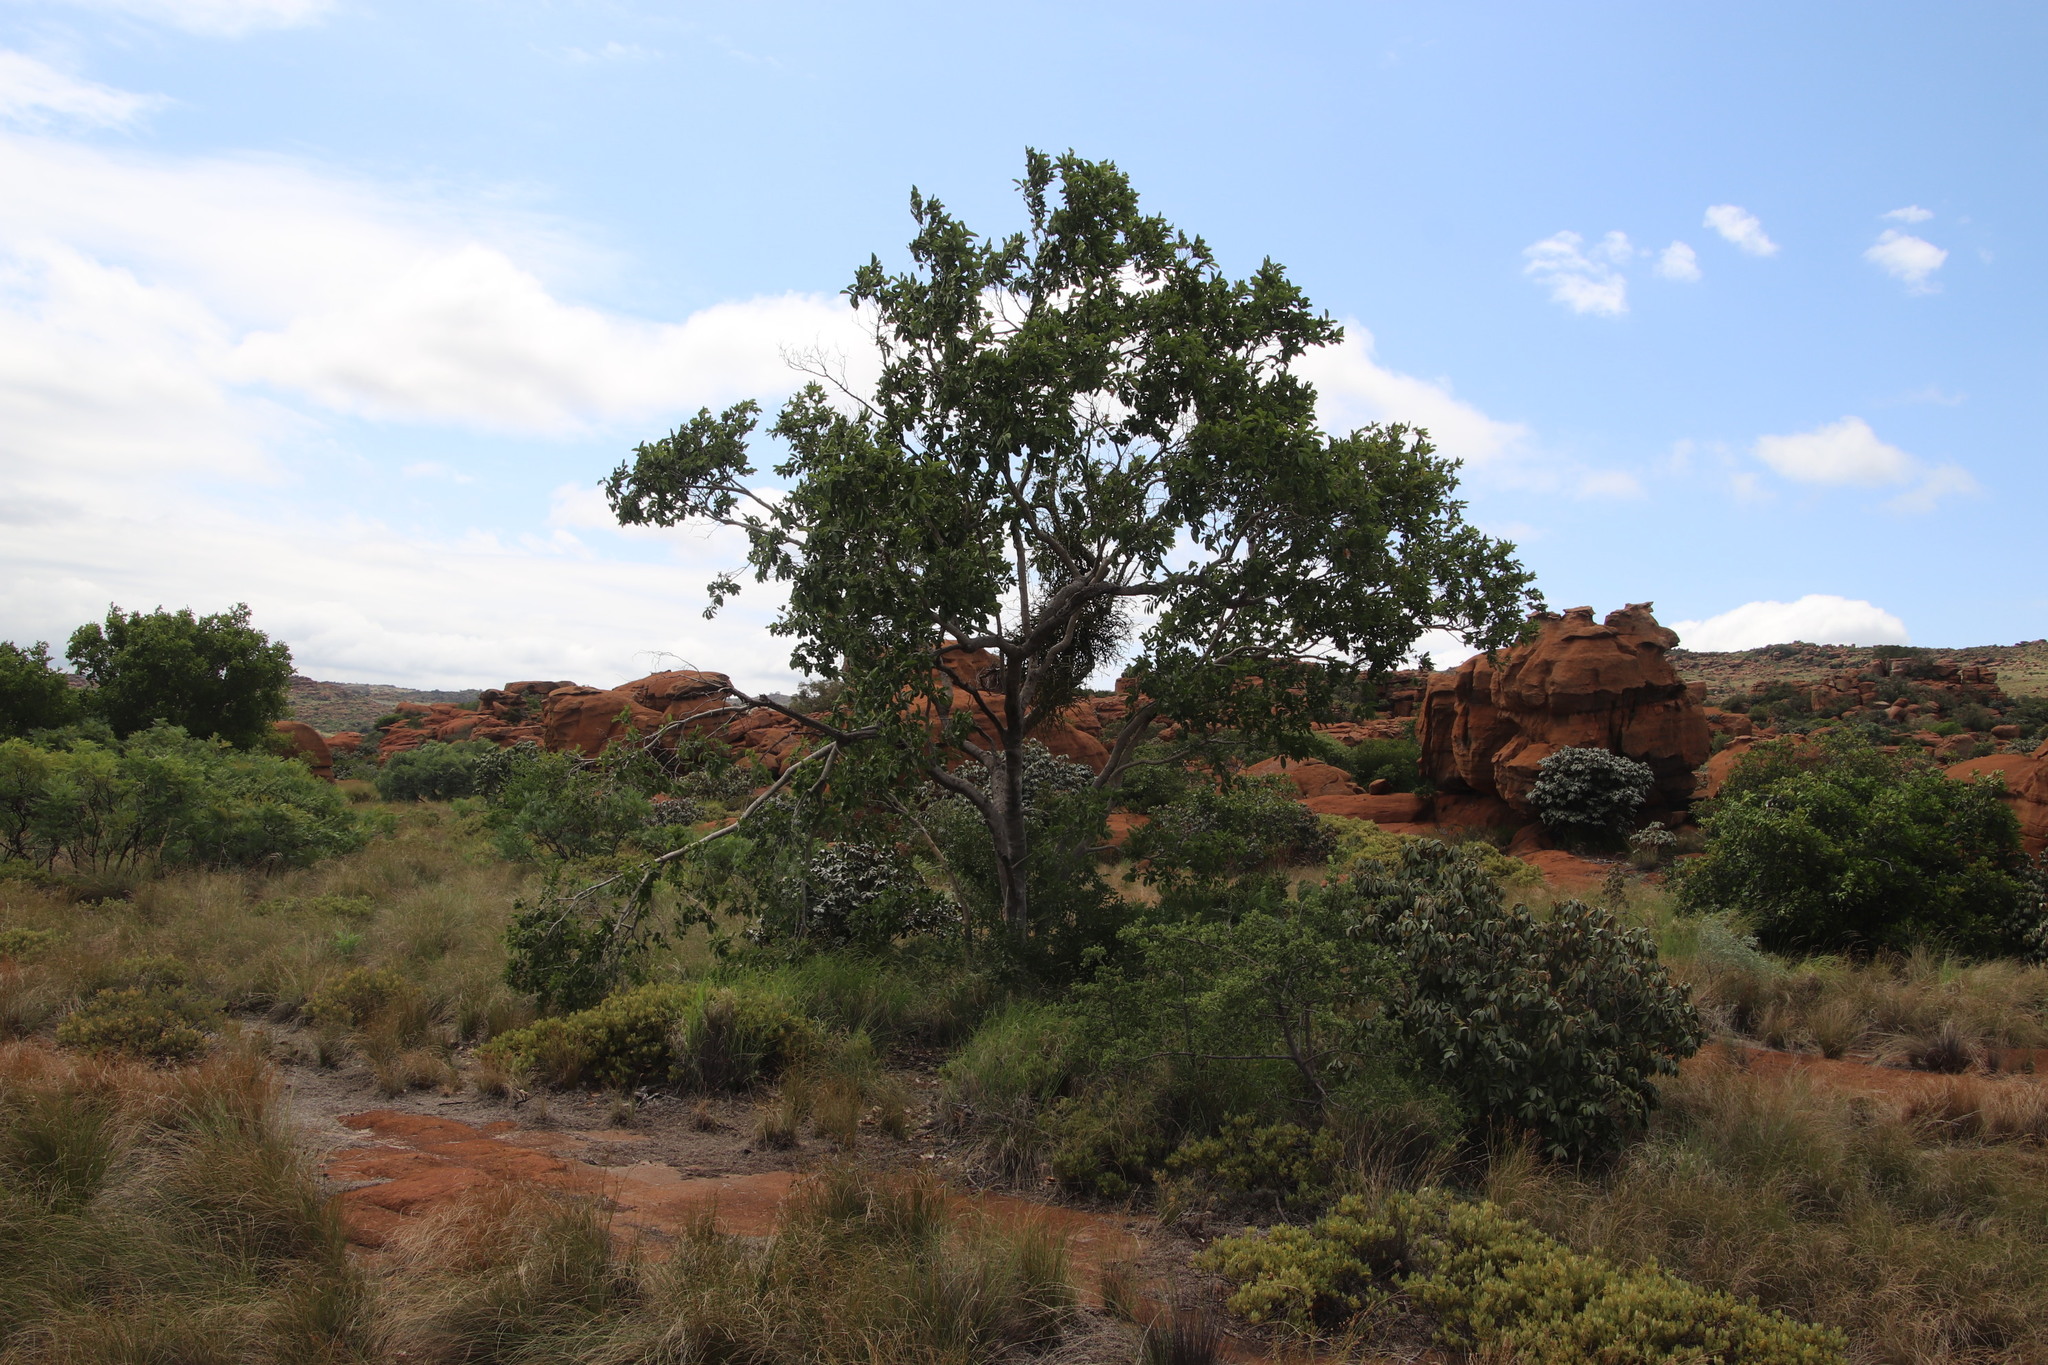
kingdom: Plantae
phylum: Tracheophyta
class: Magnoliopsida
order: Myrtales
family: Combretaceae
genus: Combretum
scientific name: Combretum zeyheri
